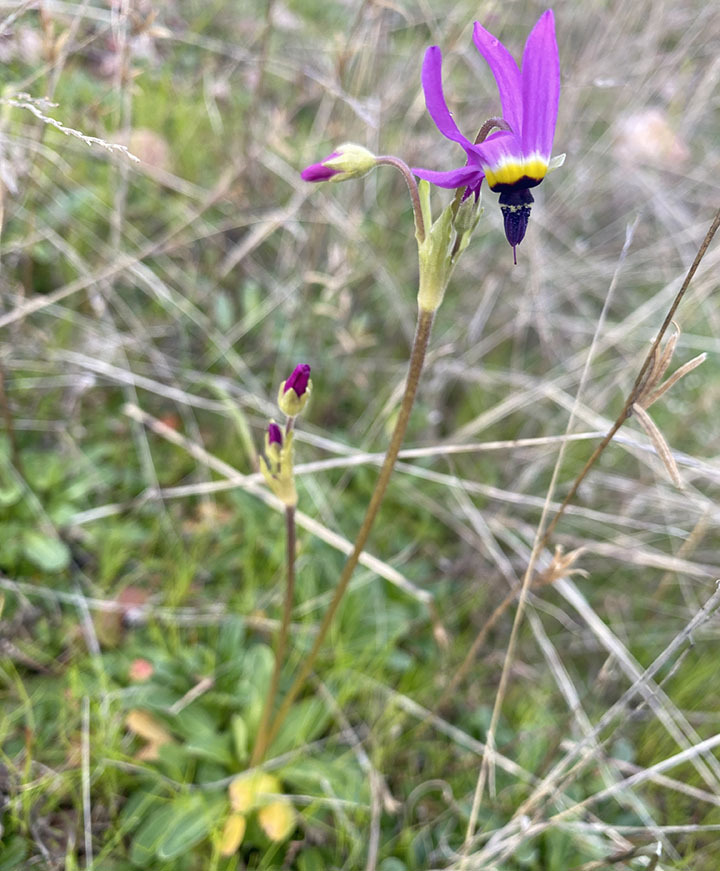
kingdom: Plantae
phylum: Tracheophyta
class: Magnoliopsida
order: Ericales
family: Primulaceae
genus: Dodecatheon
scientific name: Dodecatheon clevelandii
